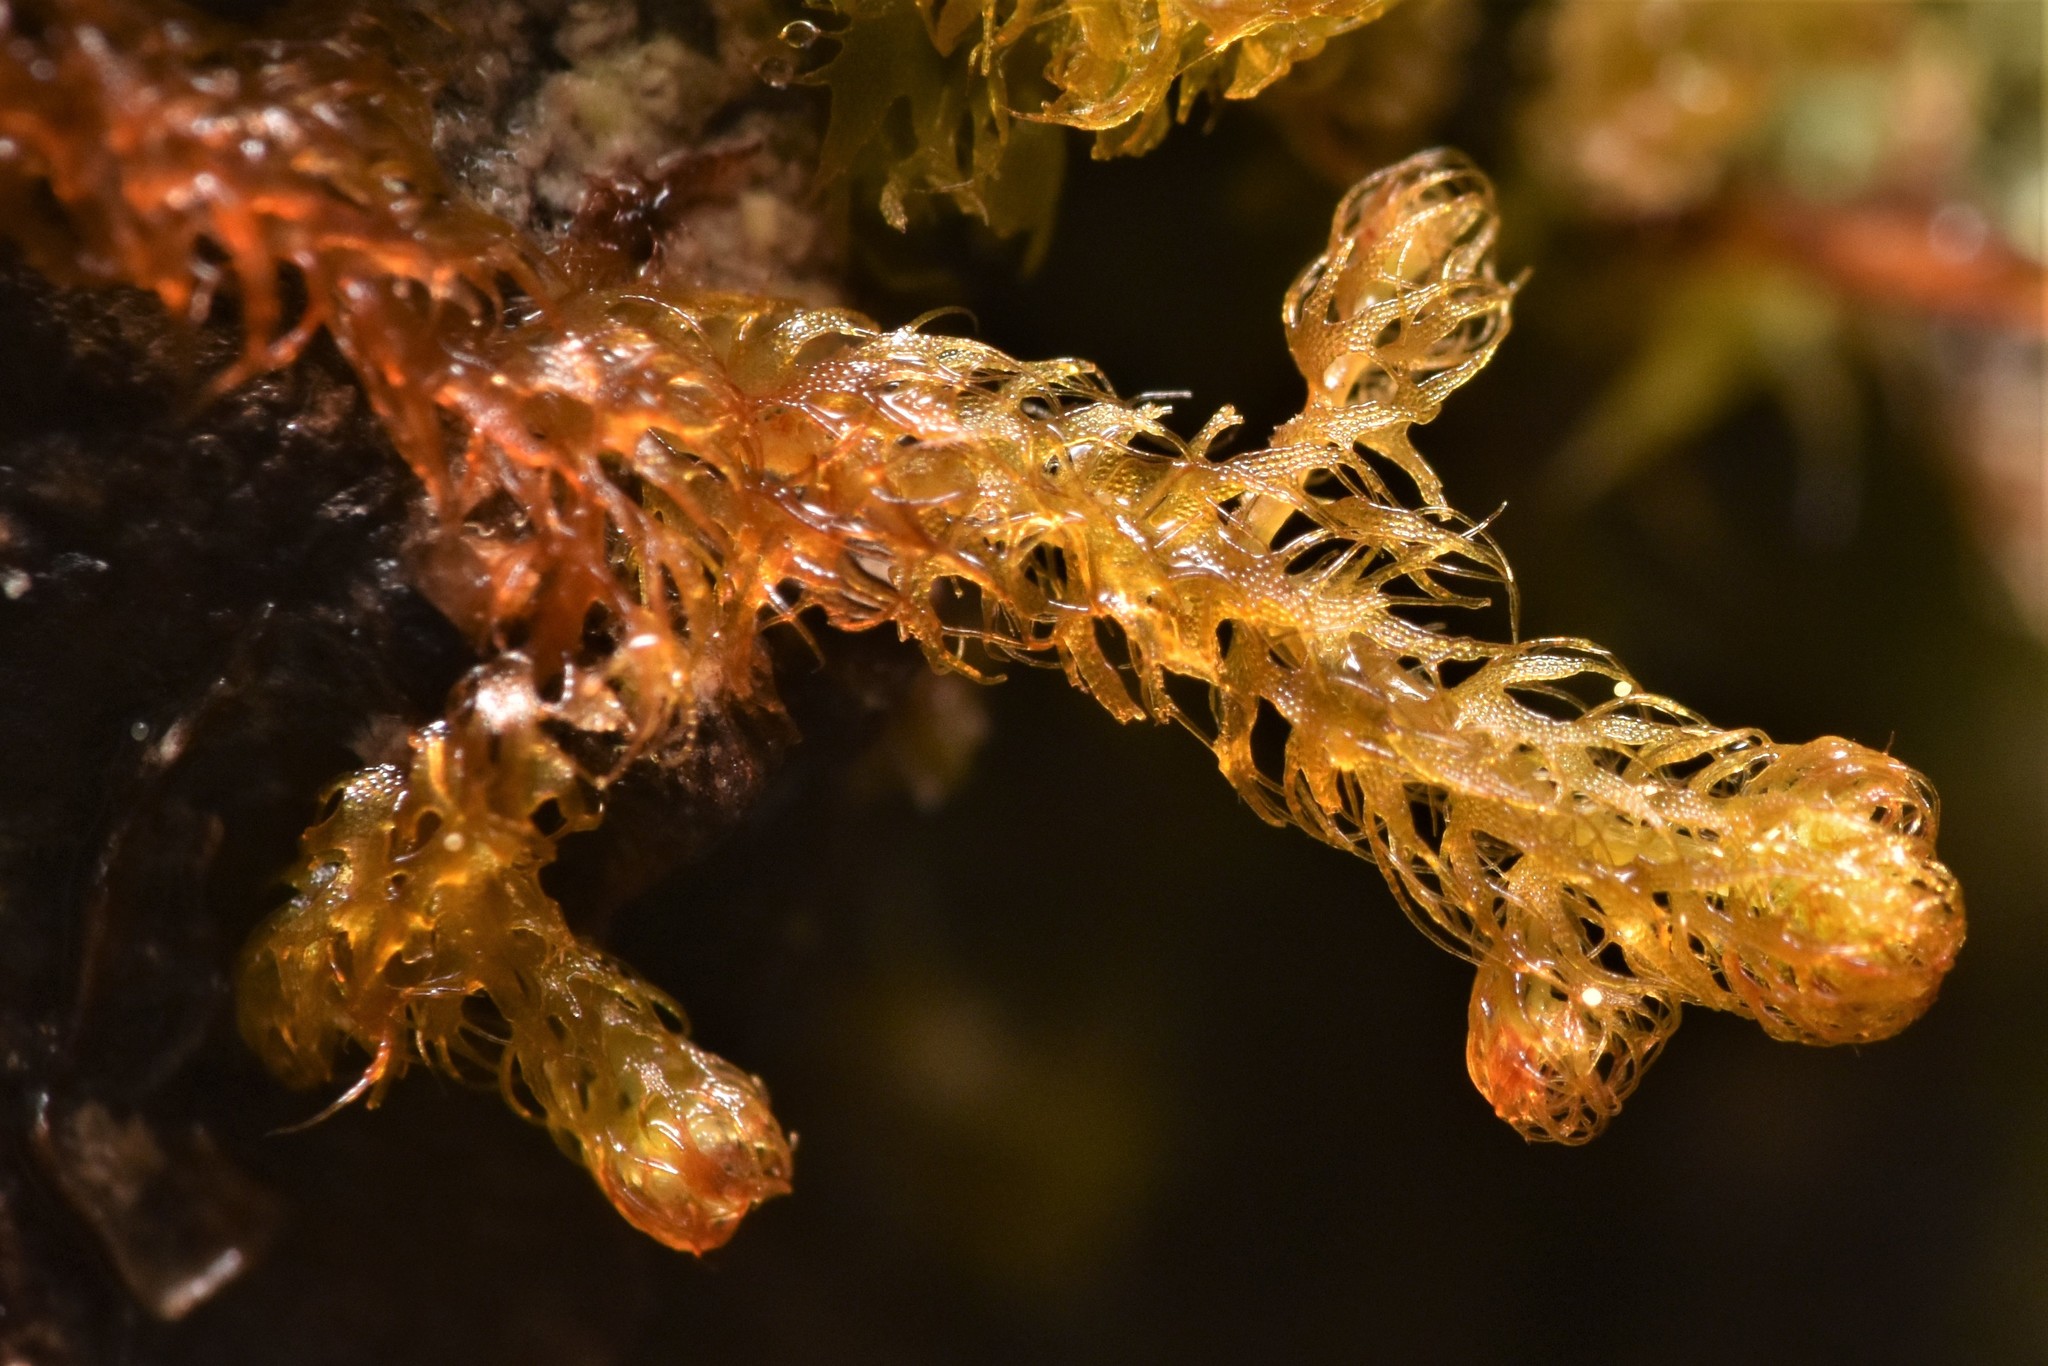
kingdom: Plantae
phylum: Marchantiophyta
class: Jungermanniopsida
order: Ptilidiales
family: Ptilidiaceae
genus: Ptilidium
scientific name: Ptilidium californicum
